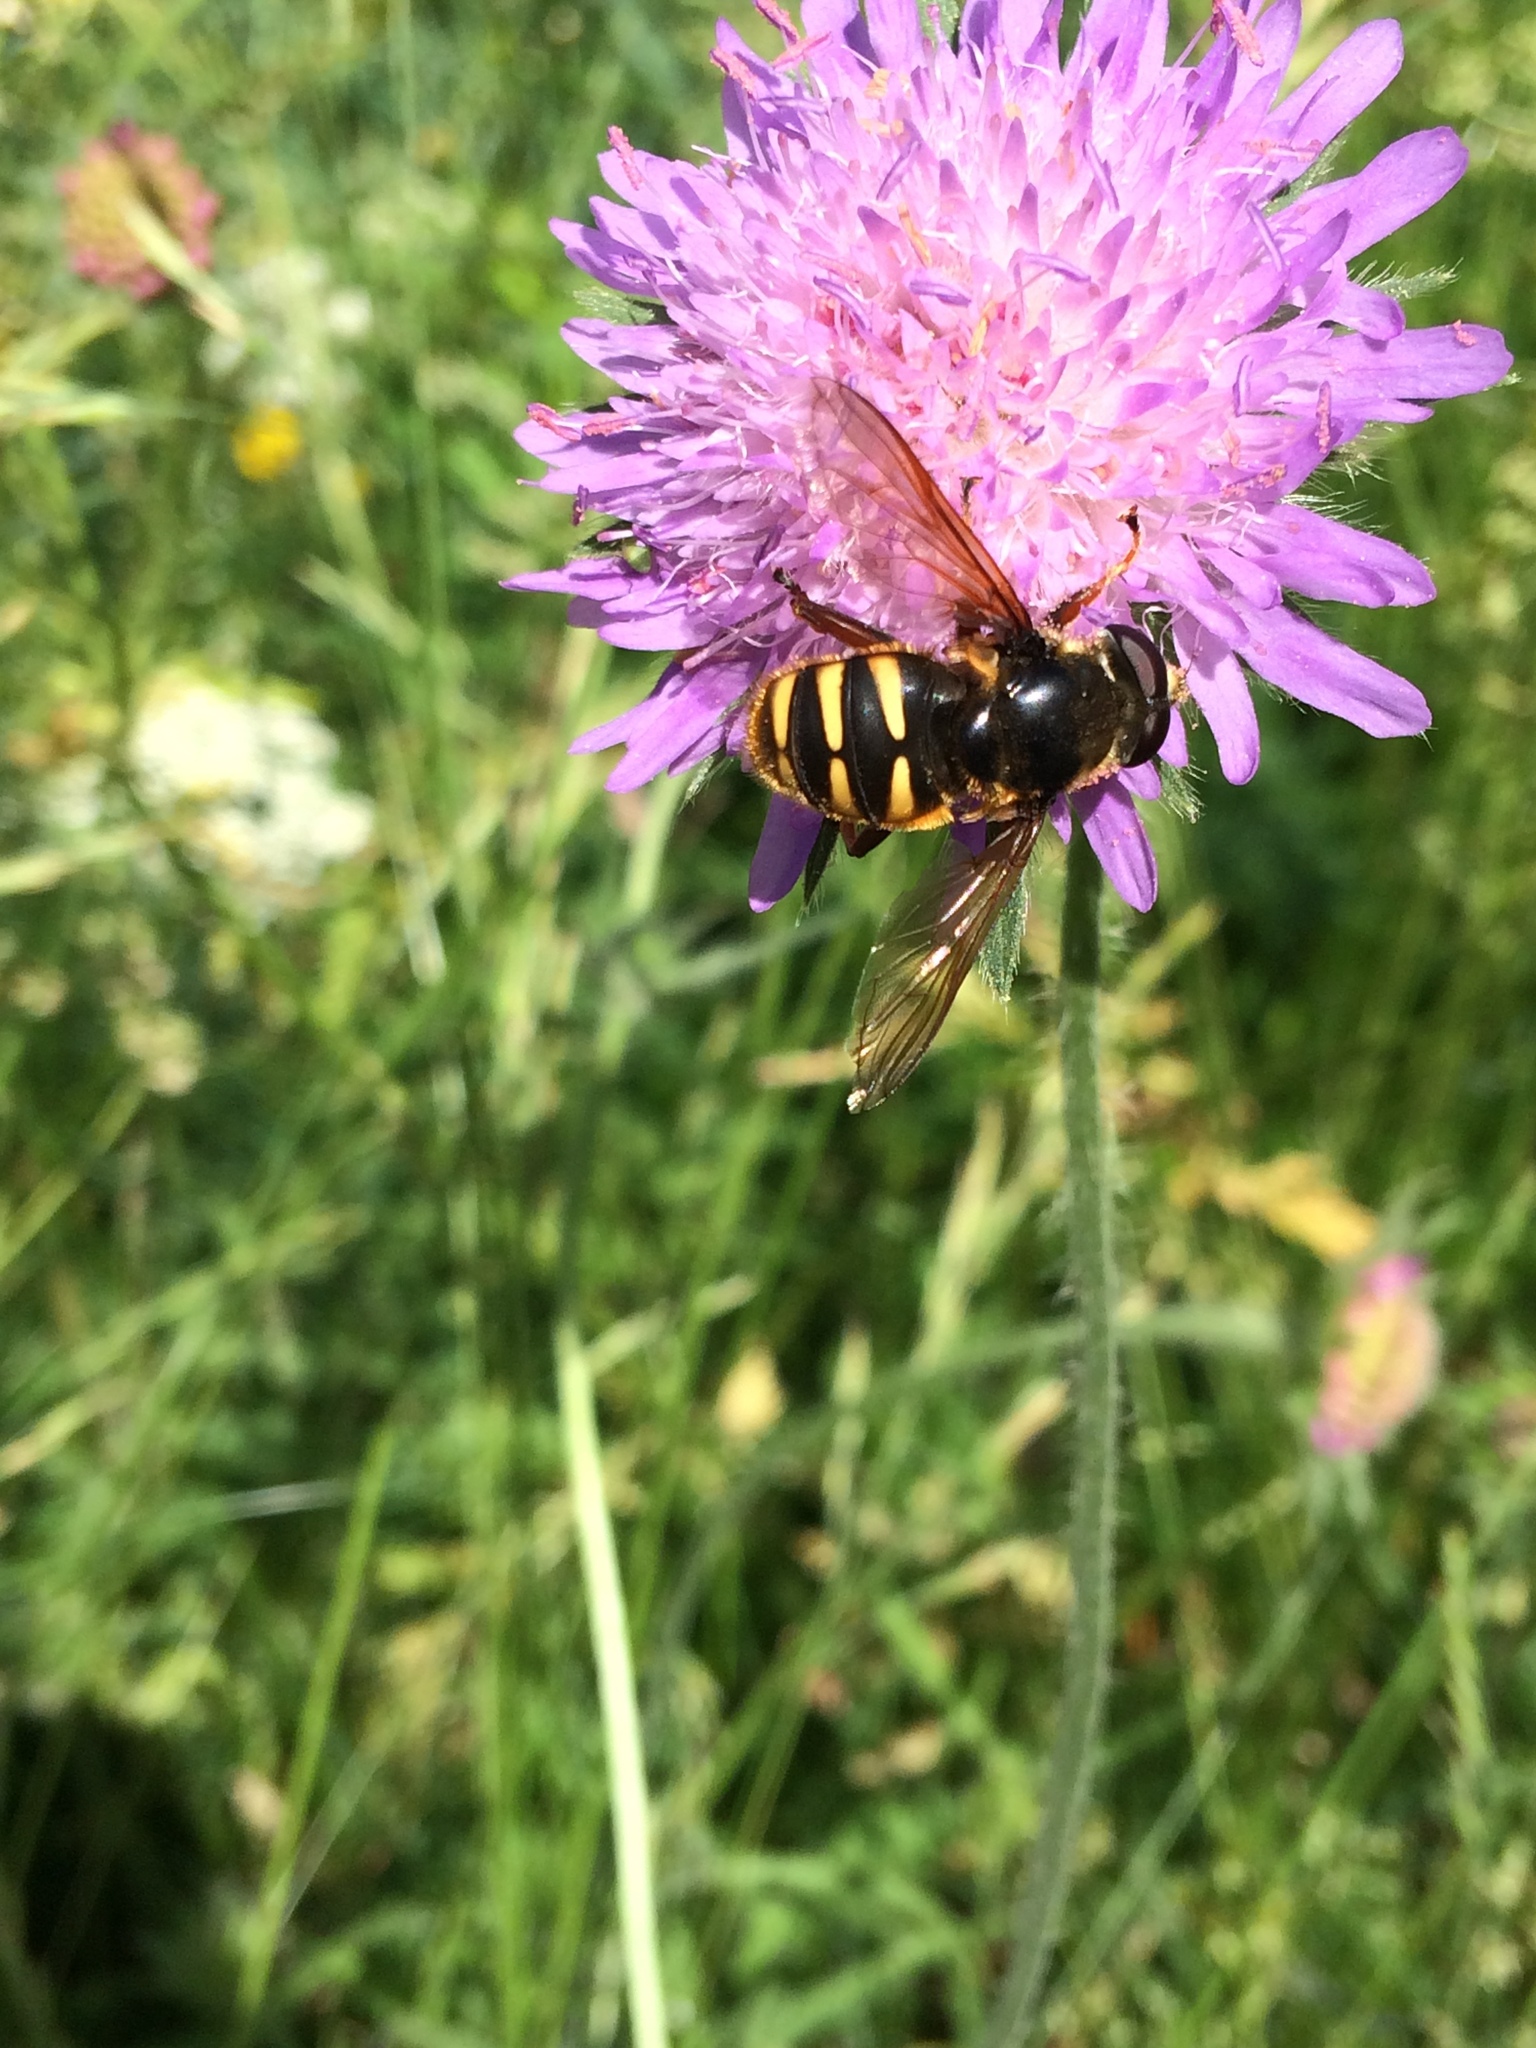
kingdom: Animalia
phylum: Arthropoda
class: Insecta
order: Diptera
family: Syrphidae
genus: Sericomyia
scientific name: Sericomyia silentis
